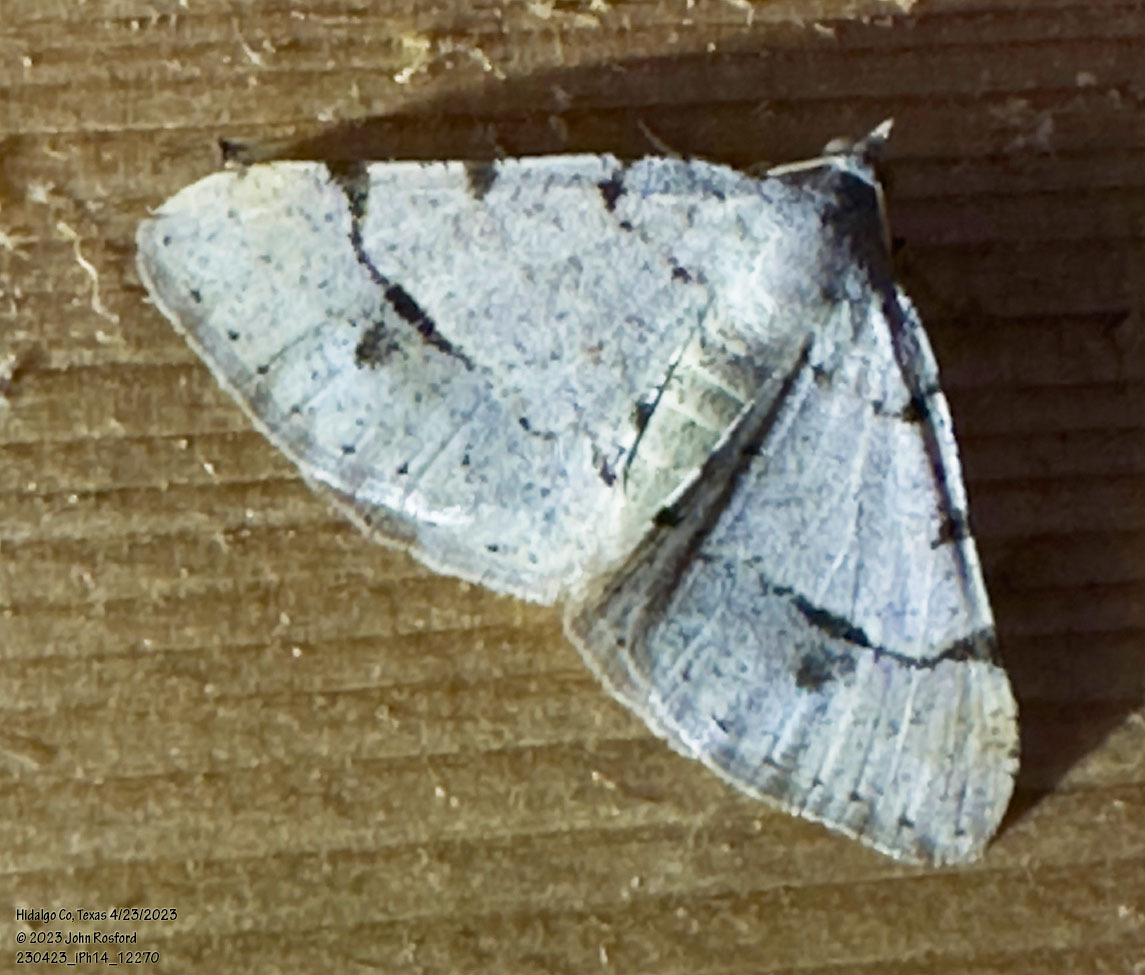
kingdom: Animalia
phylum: Arthropoda
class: Insecta
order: Lepidoptera
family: Geometridae
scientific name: Geometridae
